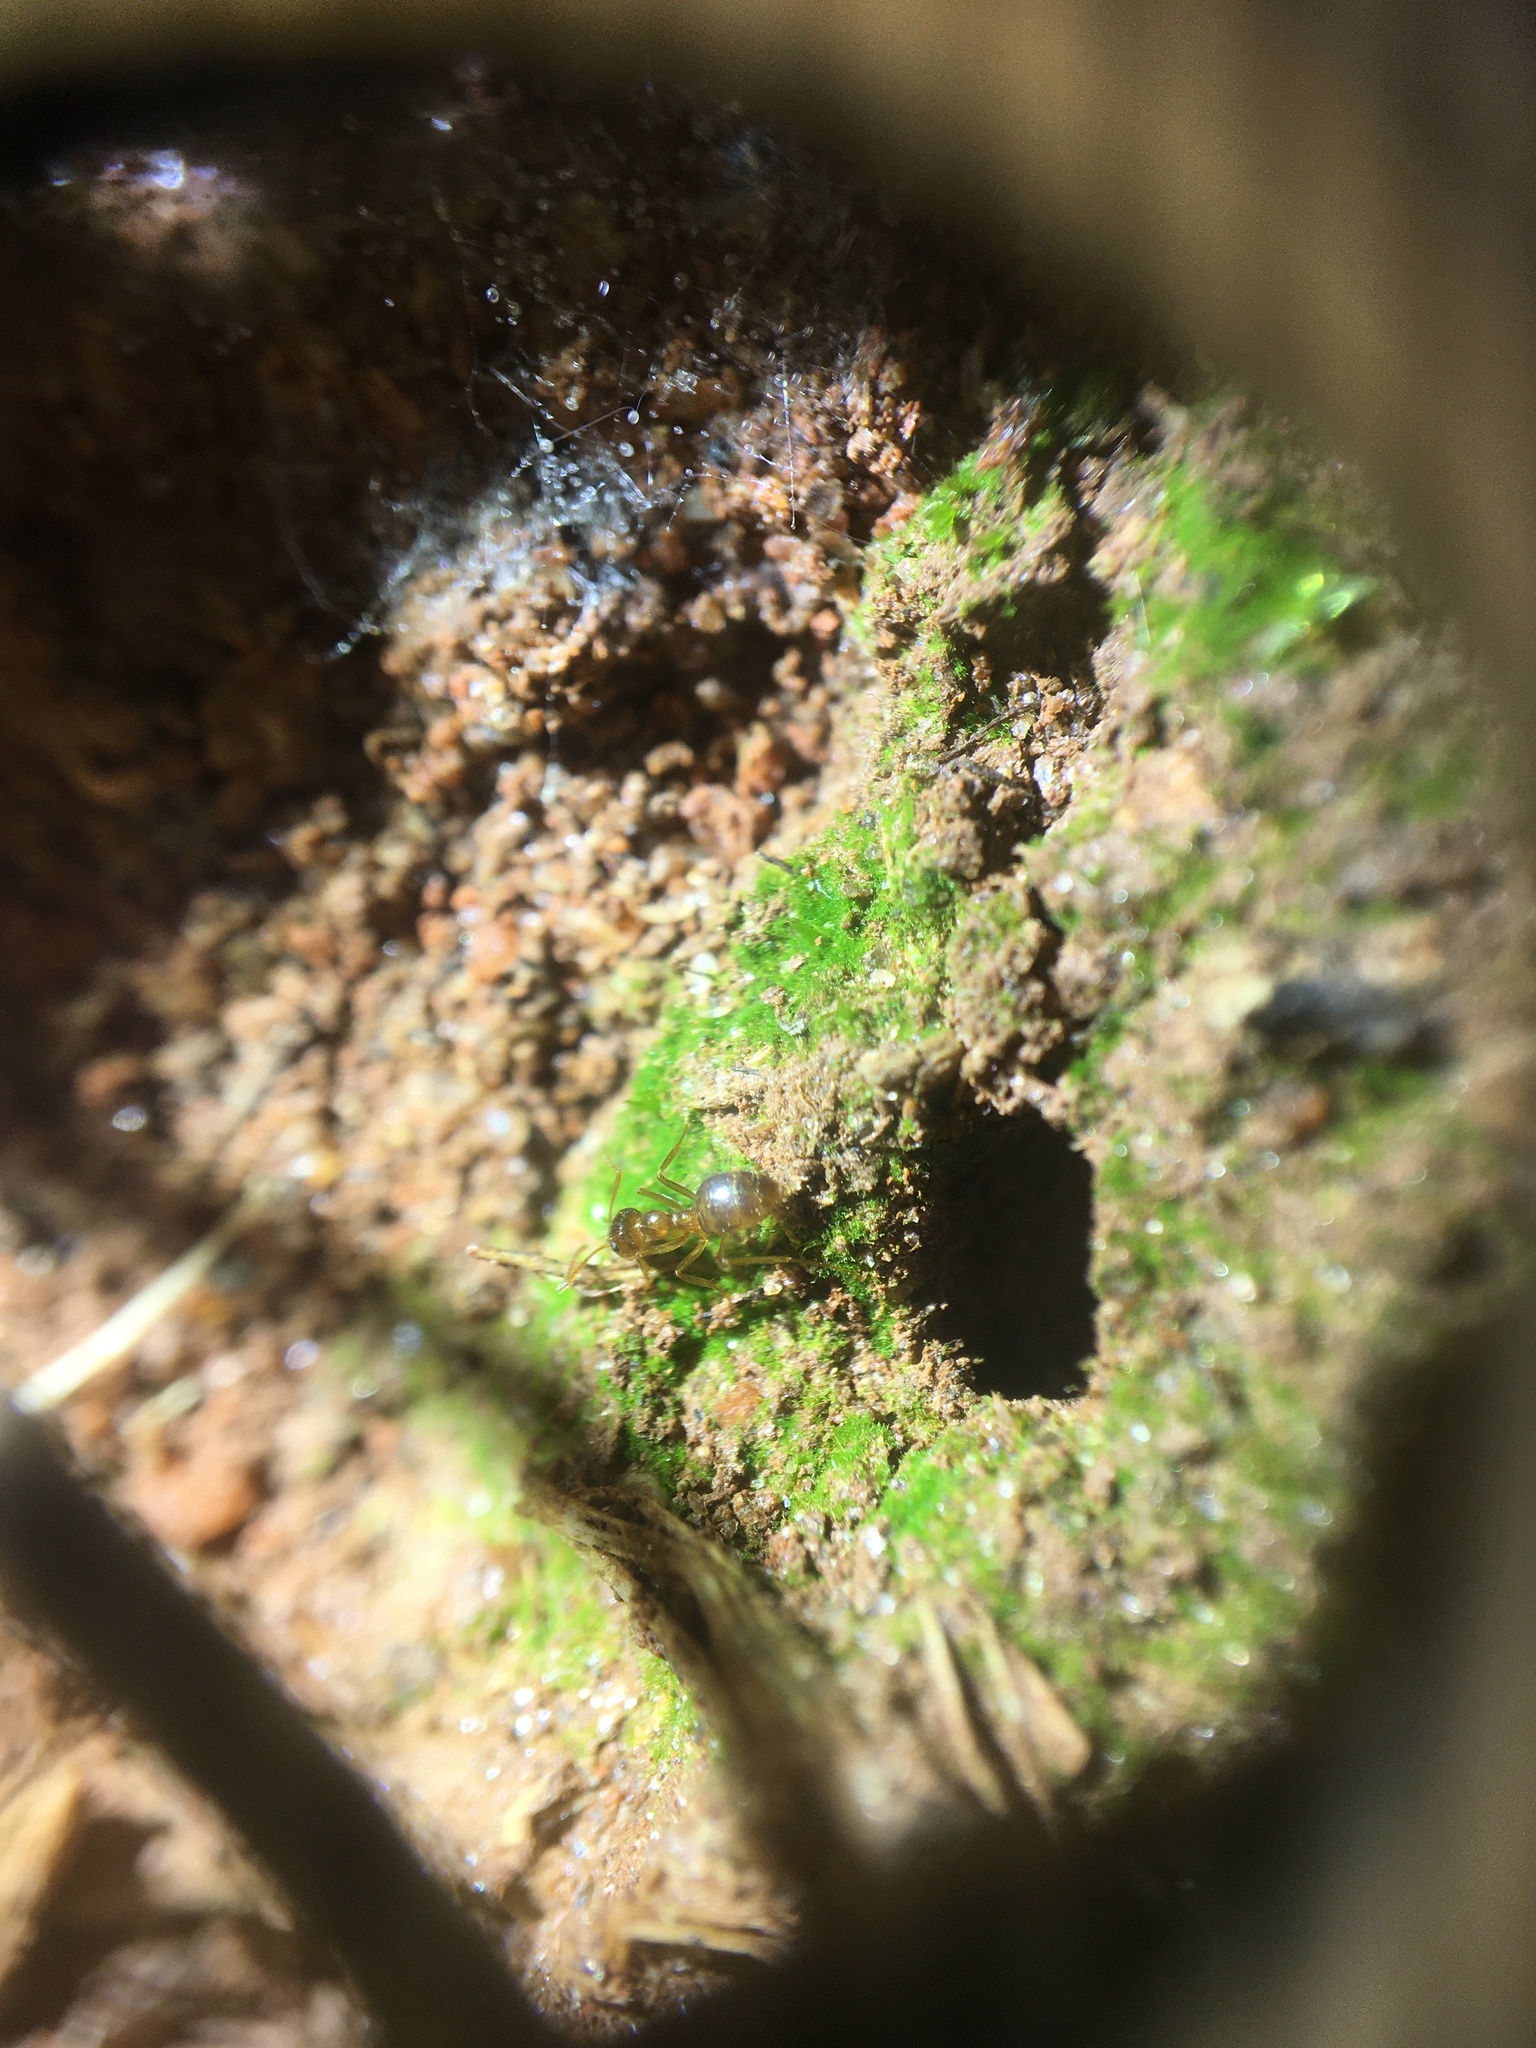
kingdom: Animalia
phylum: Arthropoda
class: Insecta
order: Hymenoptera
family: Formicidae
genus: Prenolepis
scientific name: Prenolepis imparis
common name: Small honey ant
